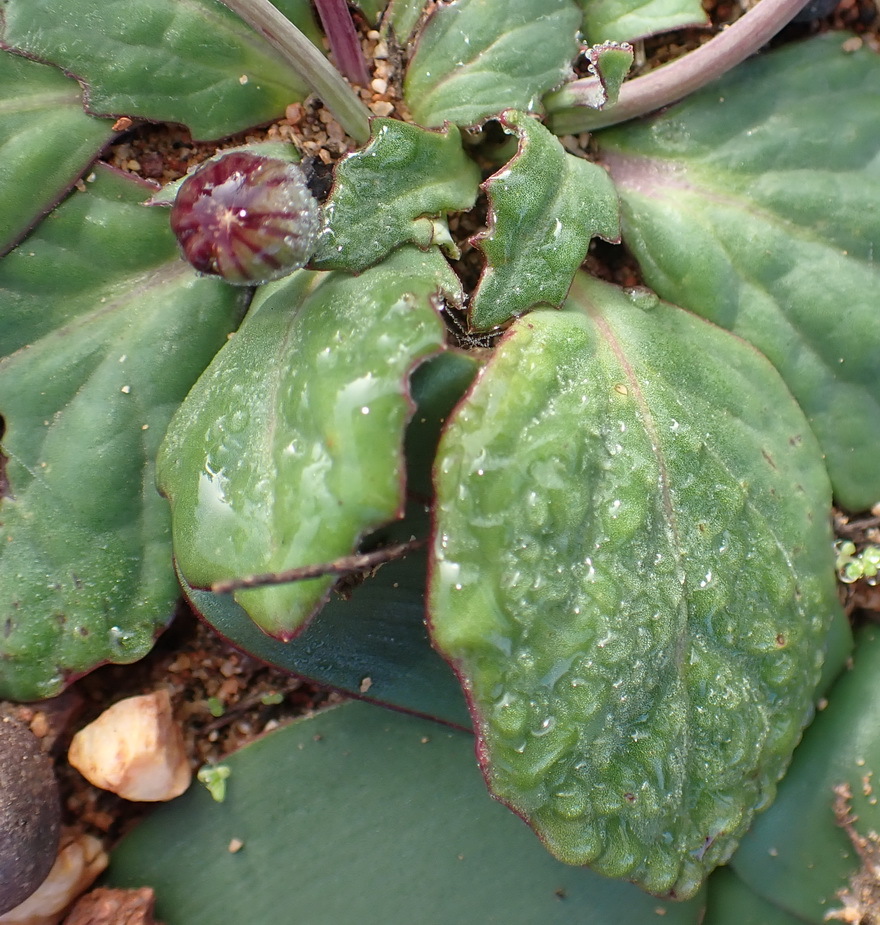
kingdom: Plantae
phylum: Tracheophyta
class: Magnoliopsida
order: Asterales
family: Asteraceae
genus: Othonna
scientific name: Othonna oleracea
